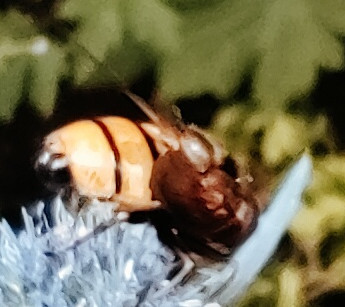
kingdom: Animalia
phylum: Arthropoda
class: Insecta
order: Diptera
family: Syrphidae
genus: Volucella
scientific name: Volucella inanis
